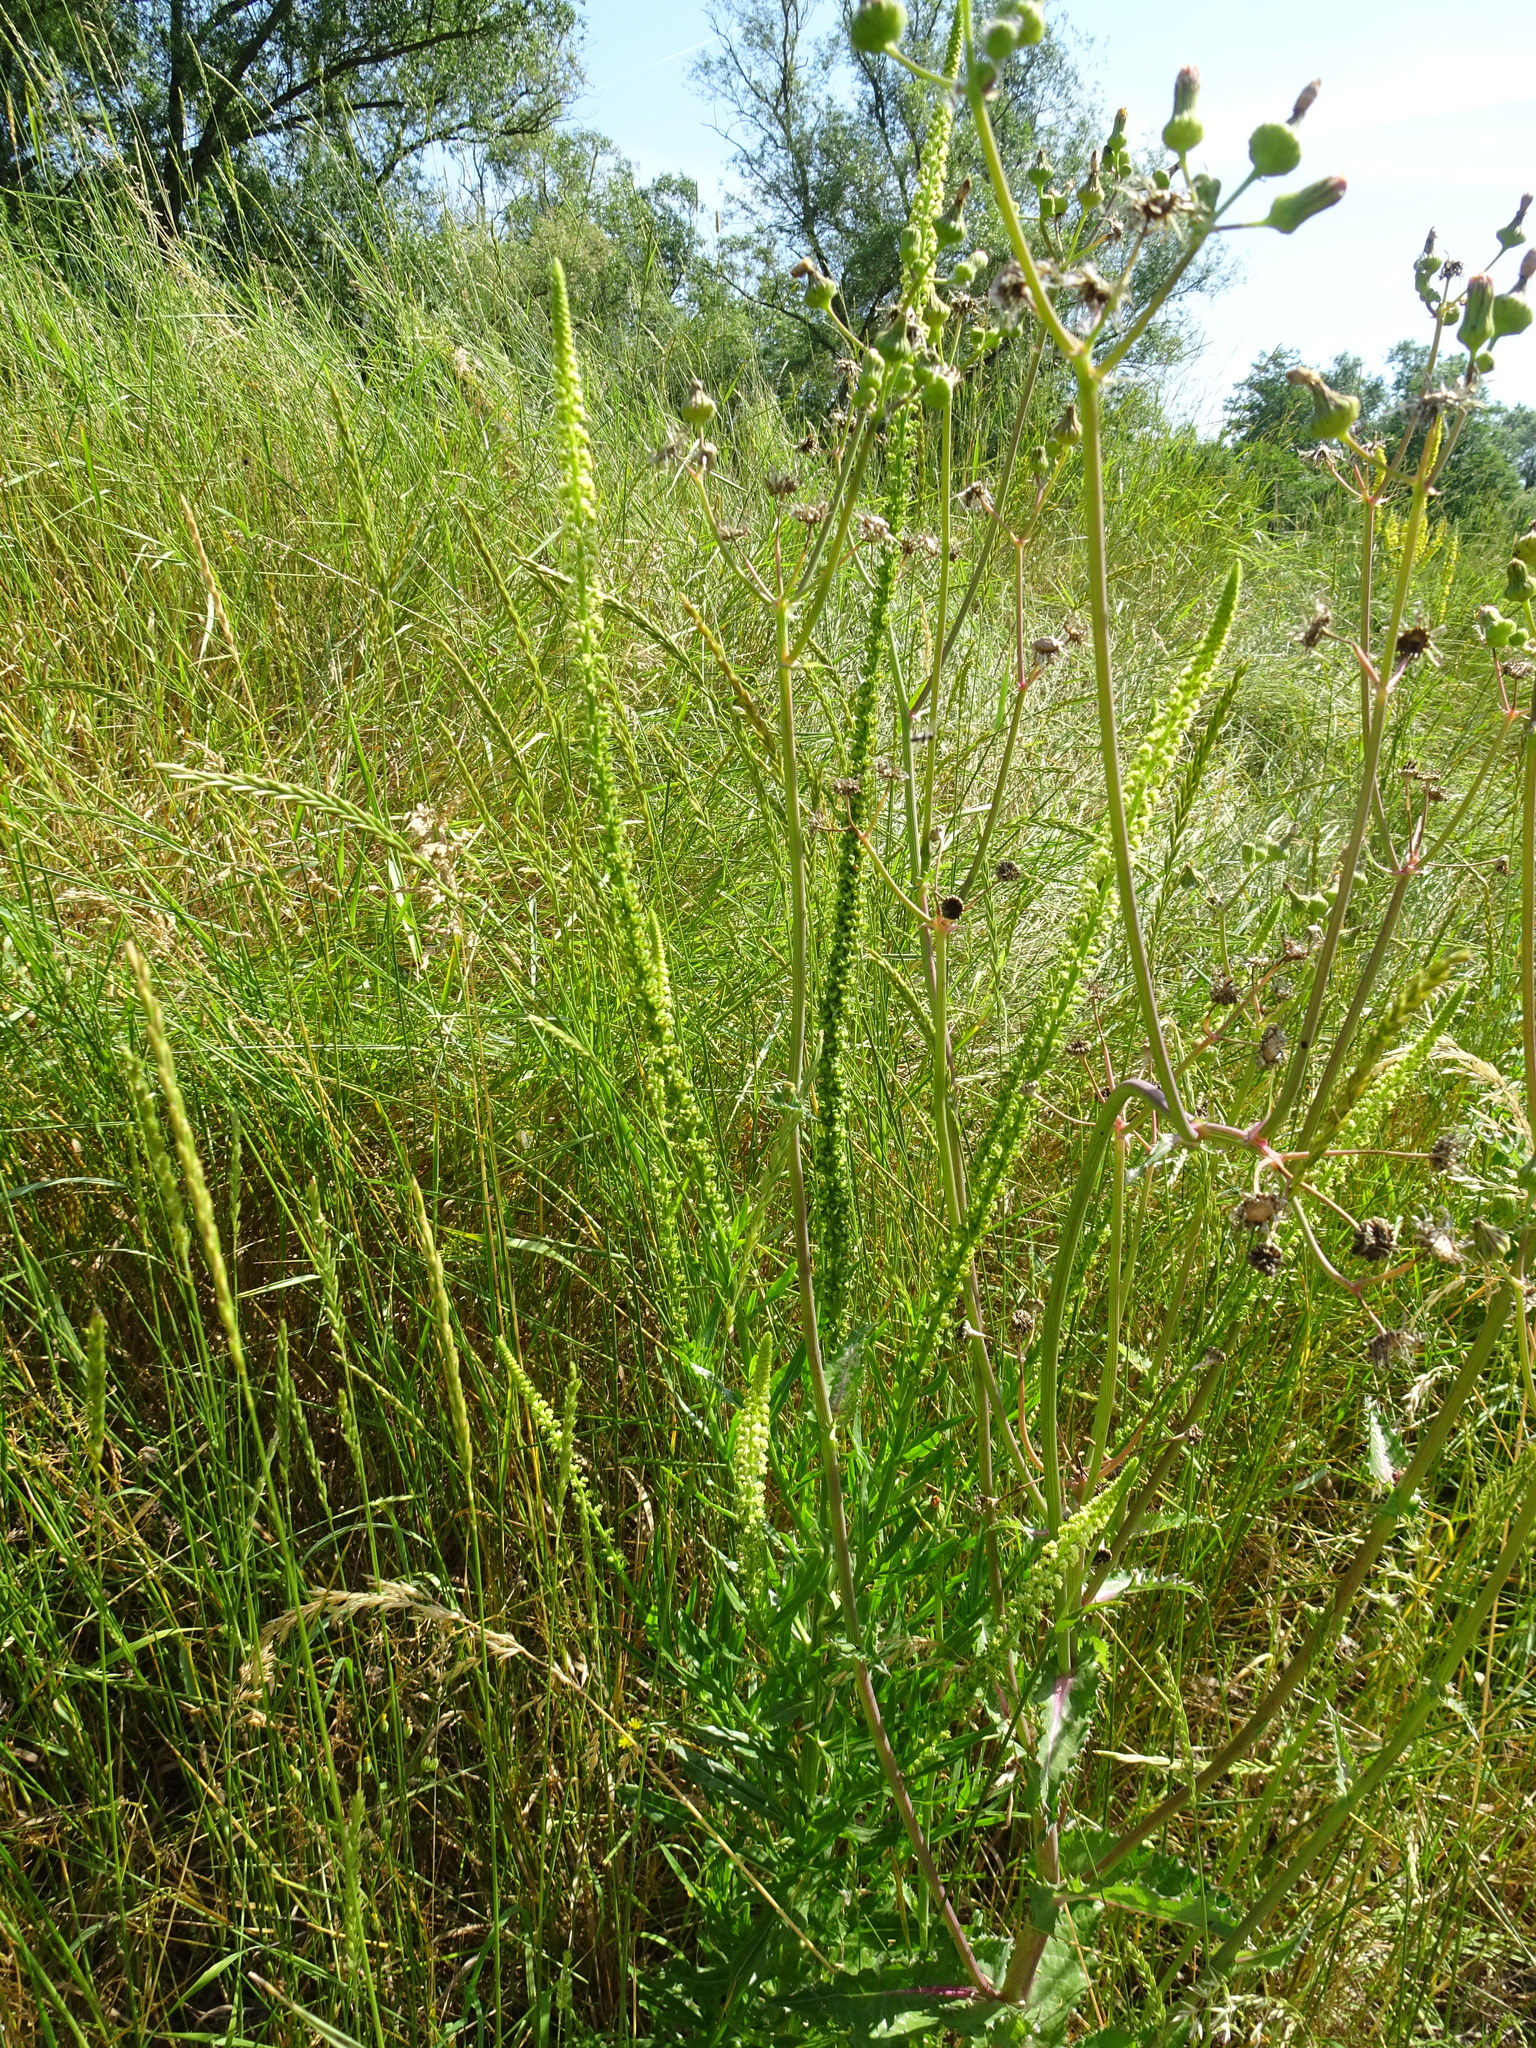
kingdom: Plantae
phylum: Tracheophyta
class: Magnoliopsida
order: Brassicales
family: Resedaceae
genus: Reseda
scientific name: Reseda luteola
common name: Weld
